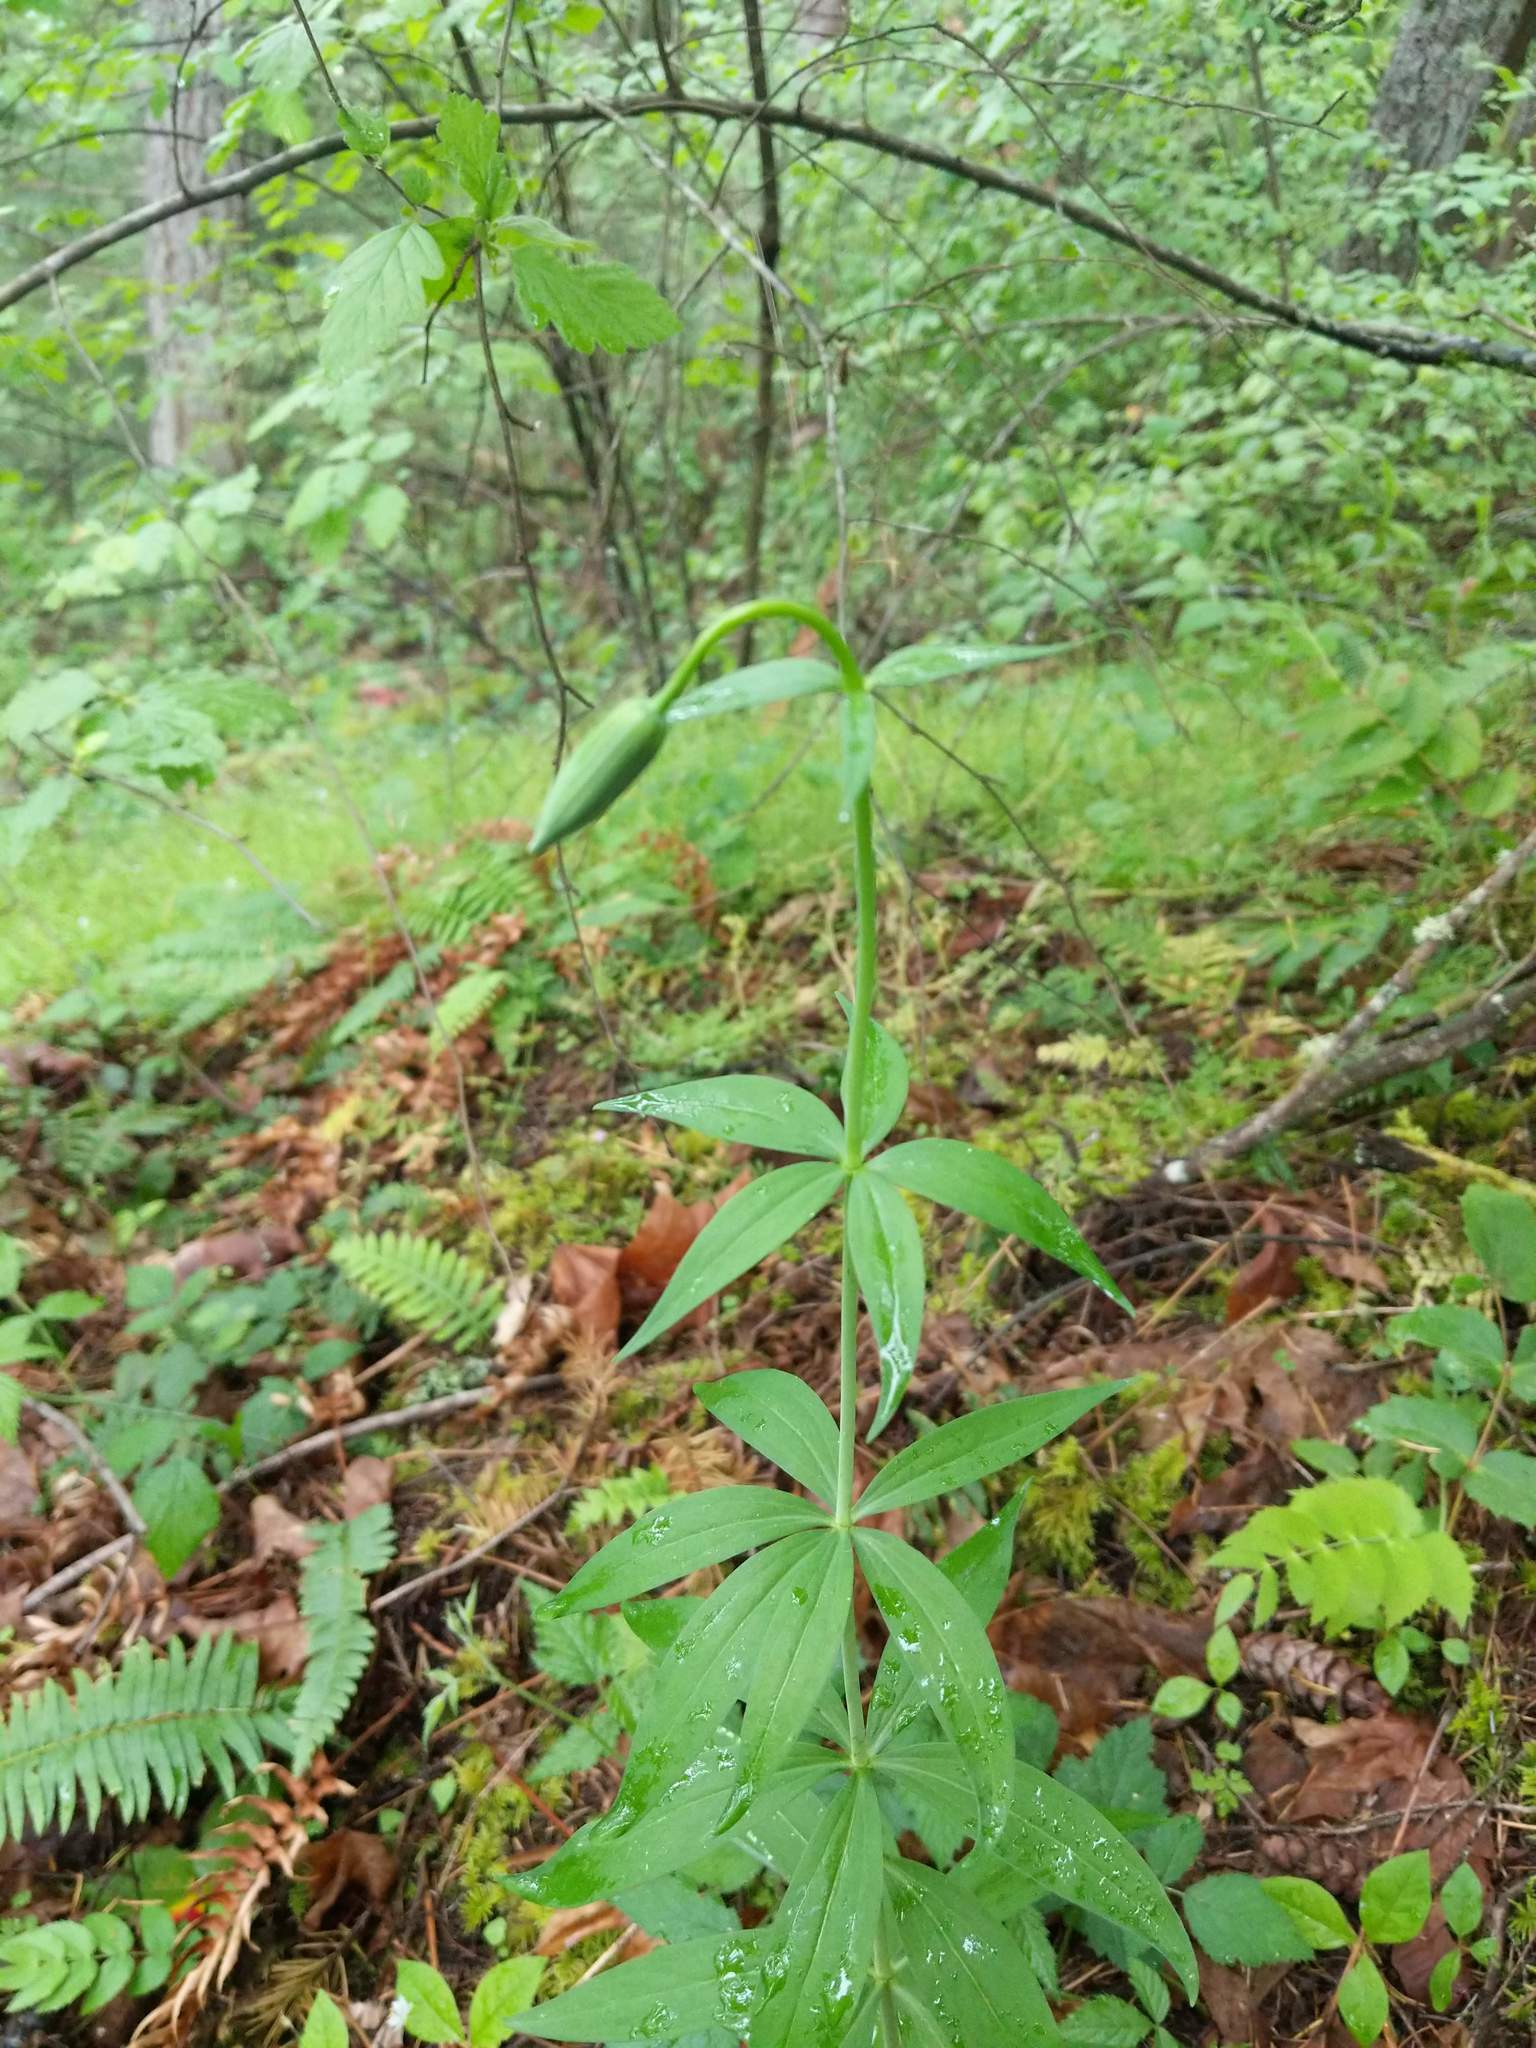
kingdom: Plantae
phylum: Tracheophyta
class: Liliopsida
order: Liliales
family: Liliaceae
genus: Lilium
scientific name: Lilium columbianum
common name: Columbia lily
